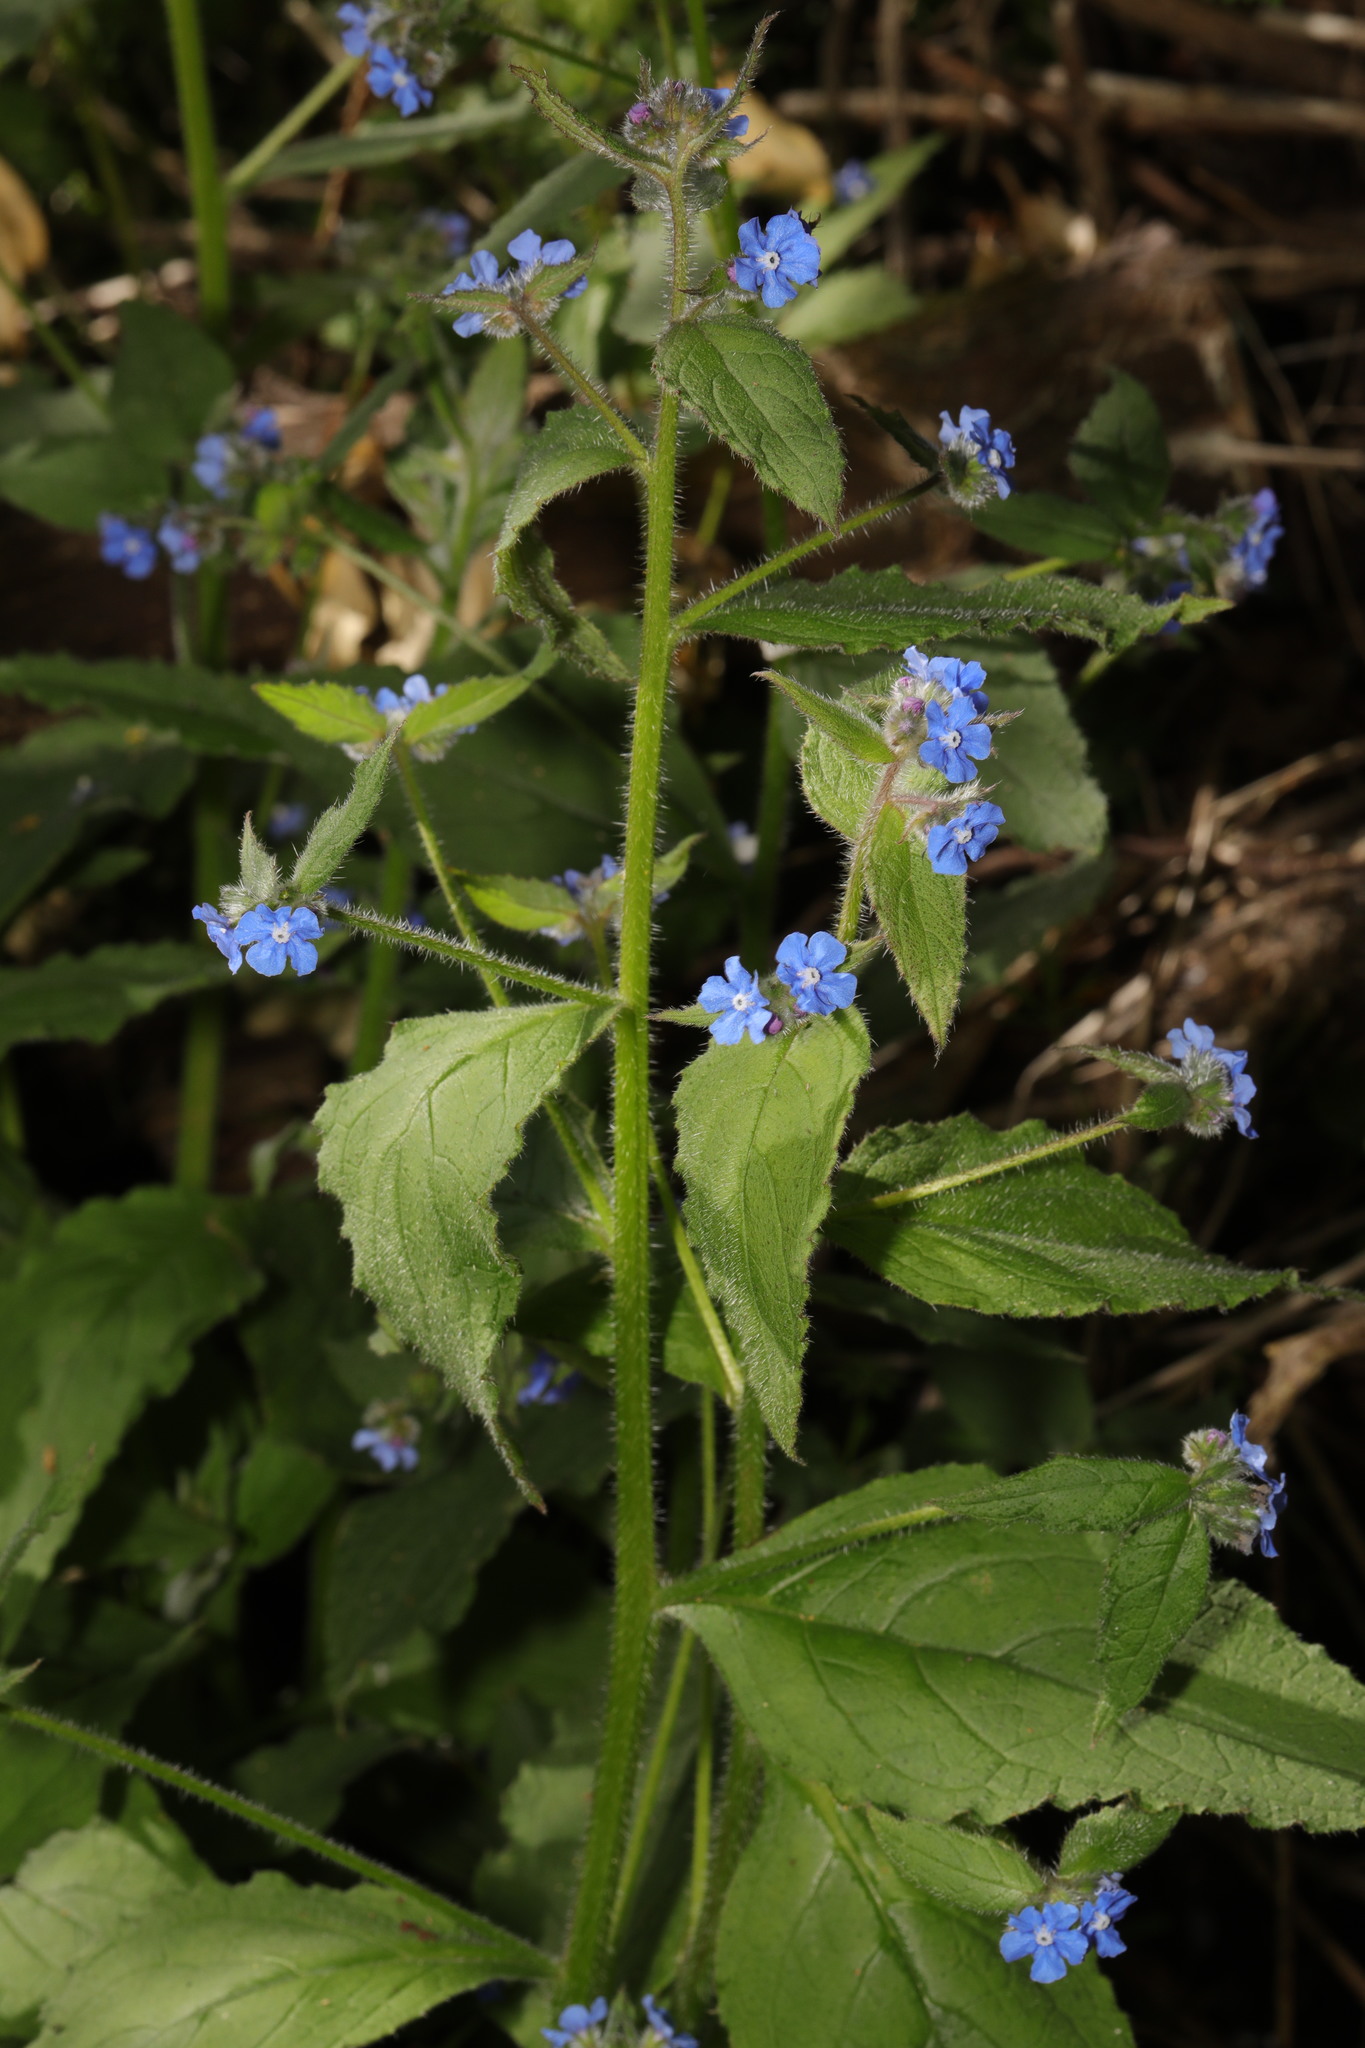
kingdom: Plantae
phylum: Tracheophyta
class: Magnoliopsida
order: Boraginales
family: Boraginaceae
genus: Pentaglottis
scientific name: Pentaglottis sempervirens
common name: Green alkanet
